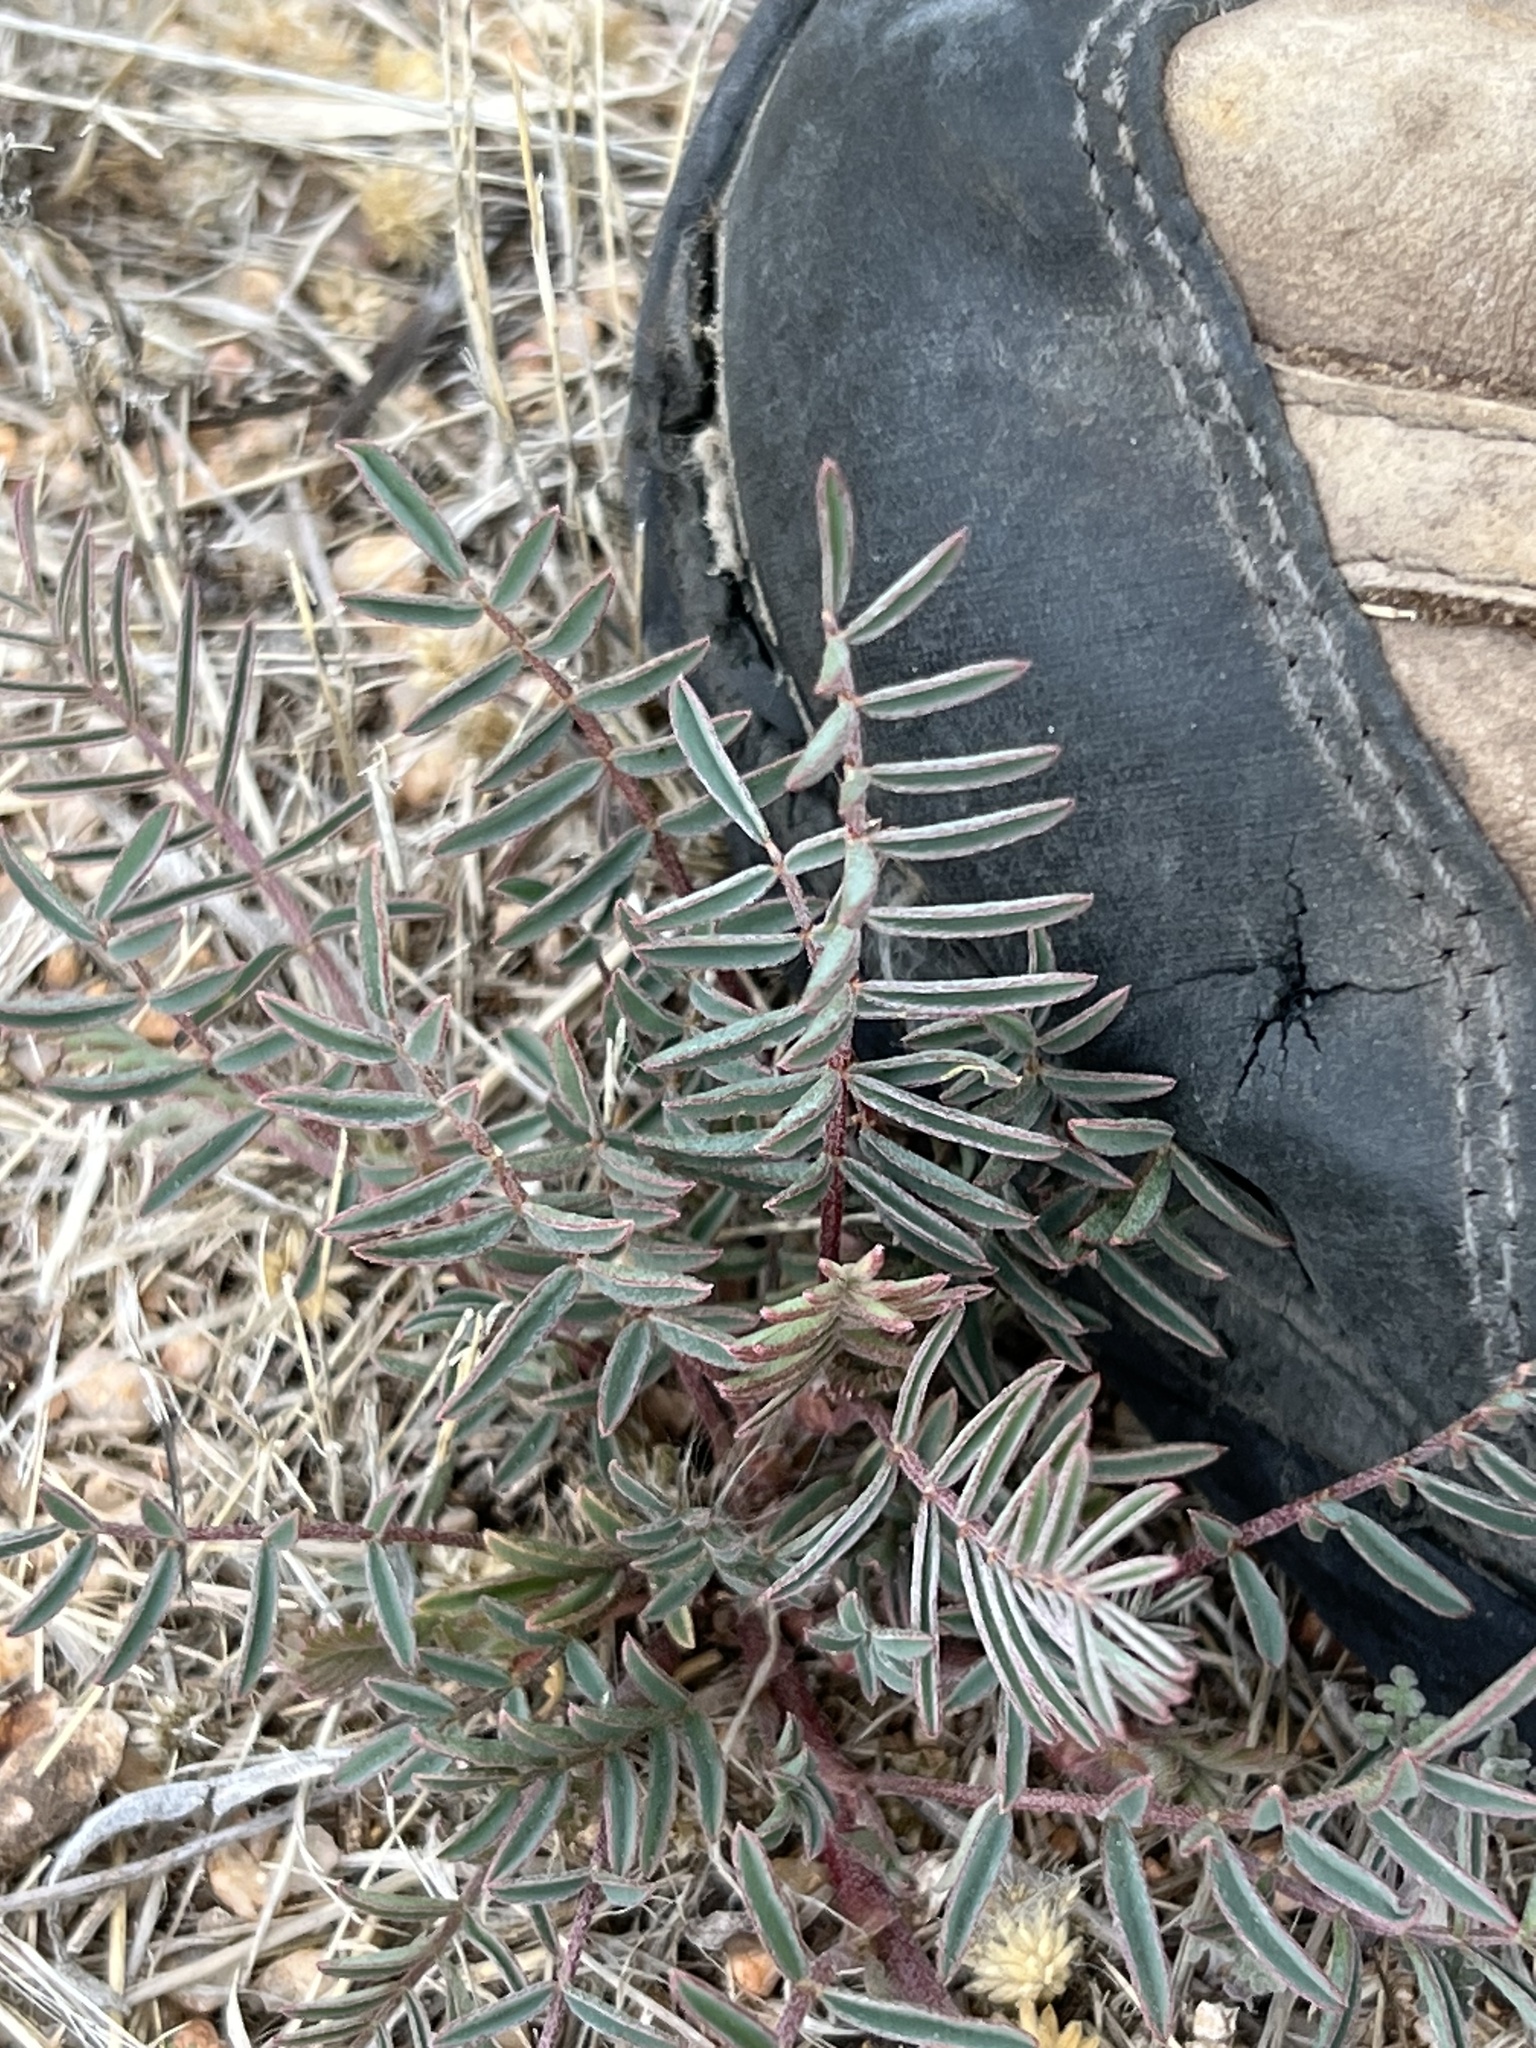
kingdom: Plantae
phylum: Tracheophyta
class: Magnoliopsida
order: Fabales
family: Fabaceae
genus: Astragalus
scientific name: Astragalus allochrous
